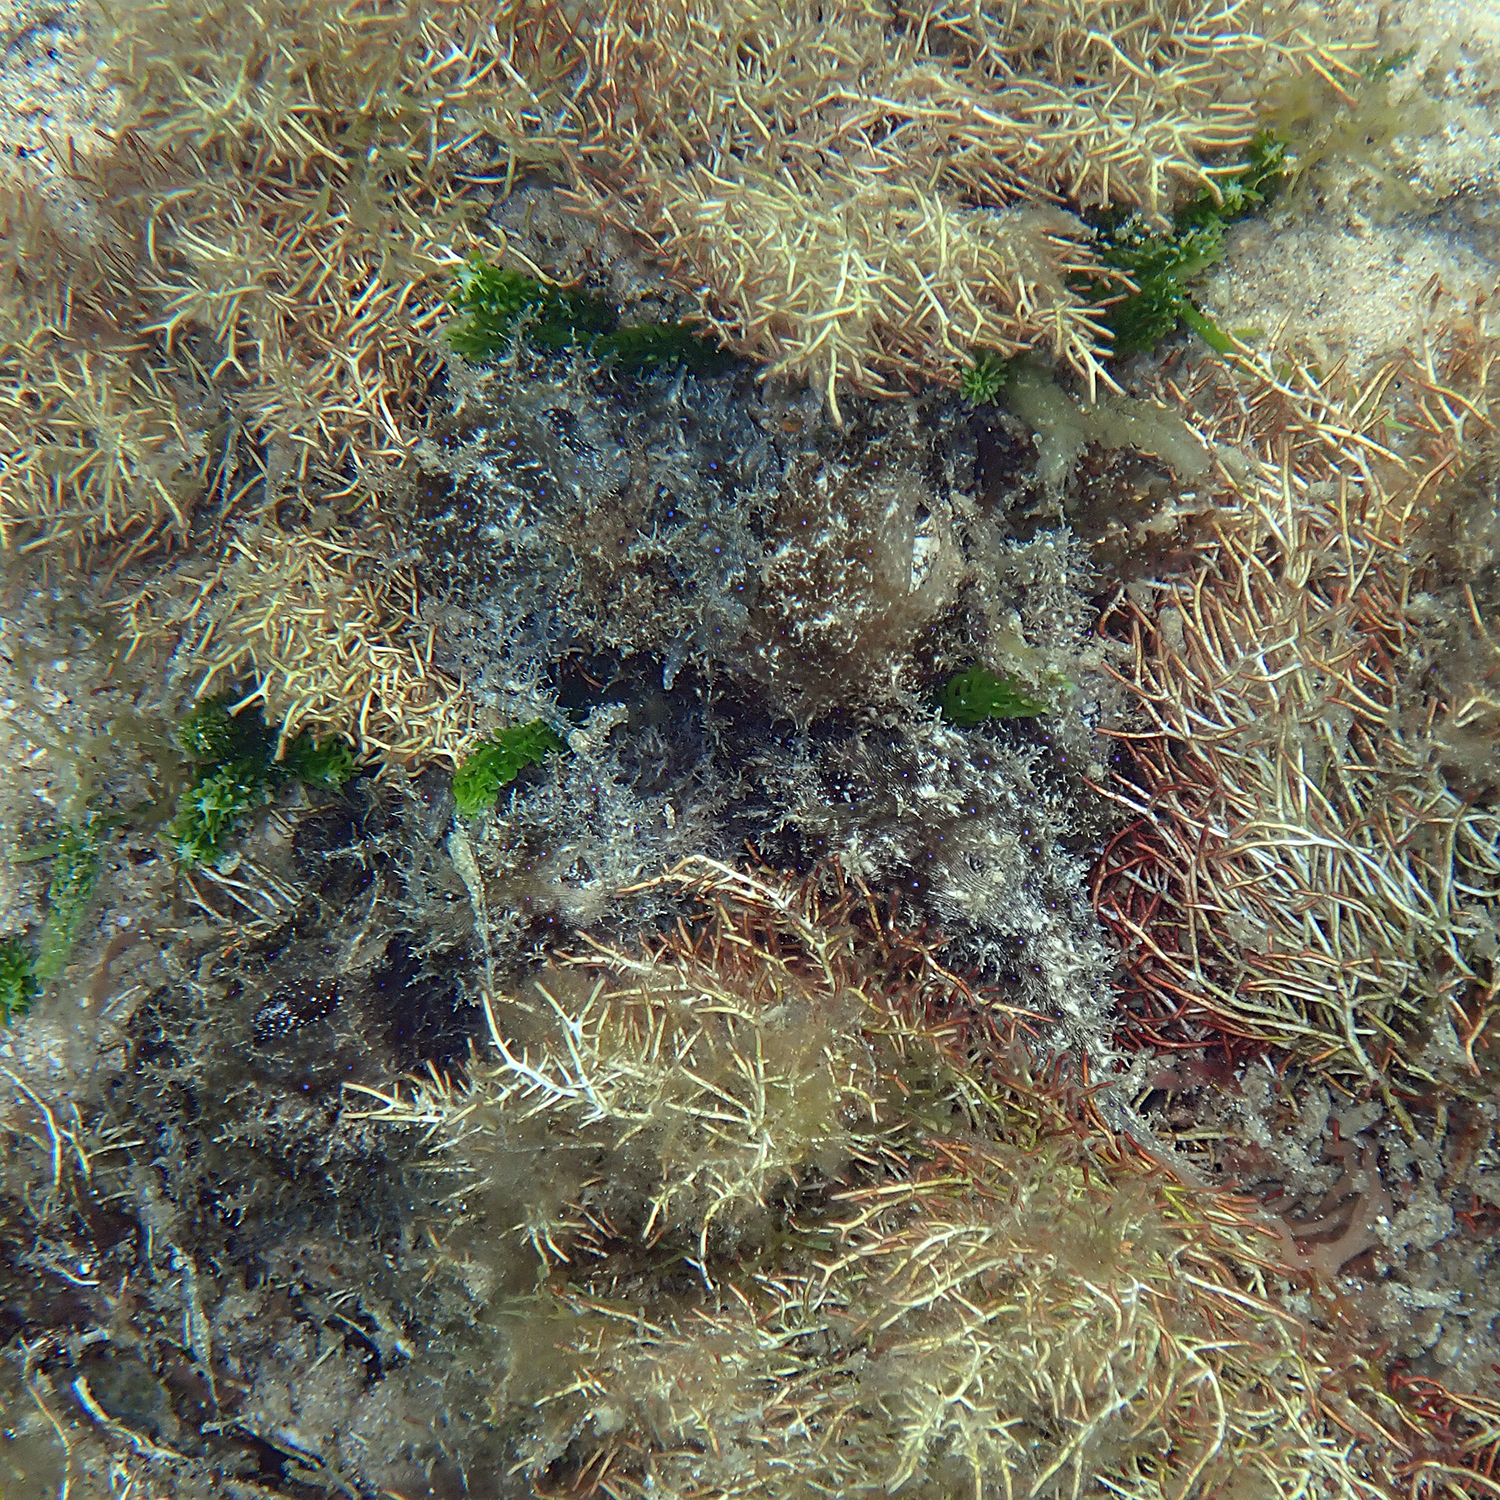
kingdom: Animalia
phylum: Mollusca
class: Gastropoda
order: Aplysiida
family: Aplysiidae
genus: Stylocheilus
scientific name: Stylocheilus striatus
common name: Striated seahare
